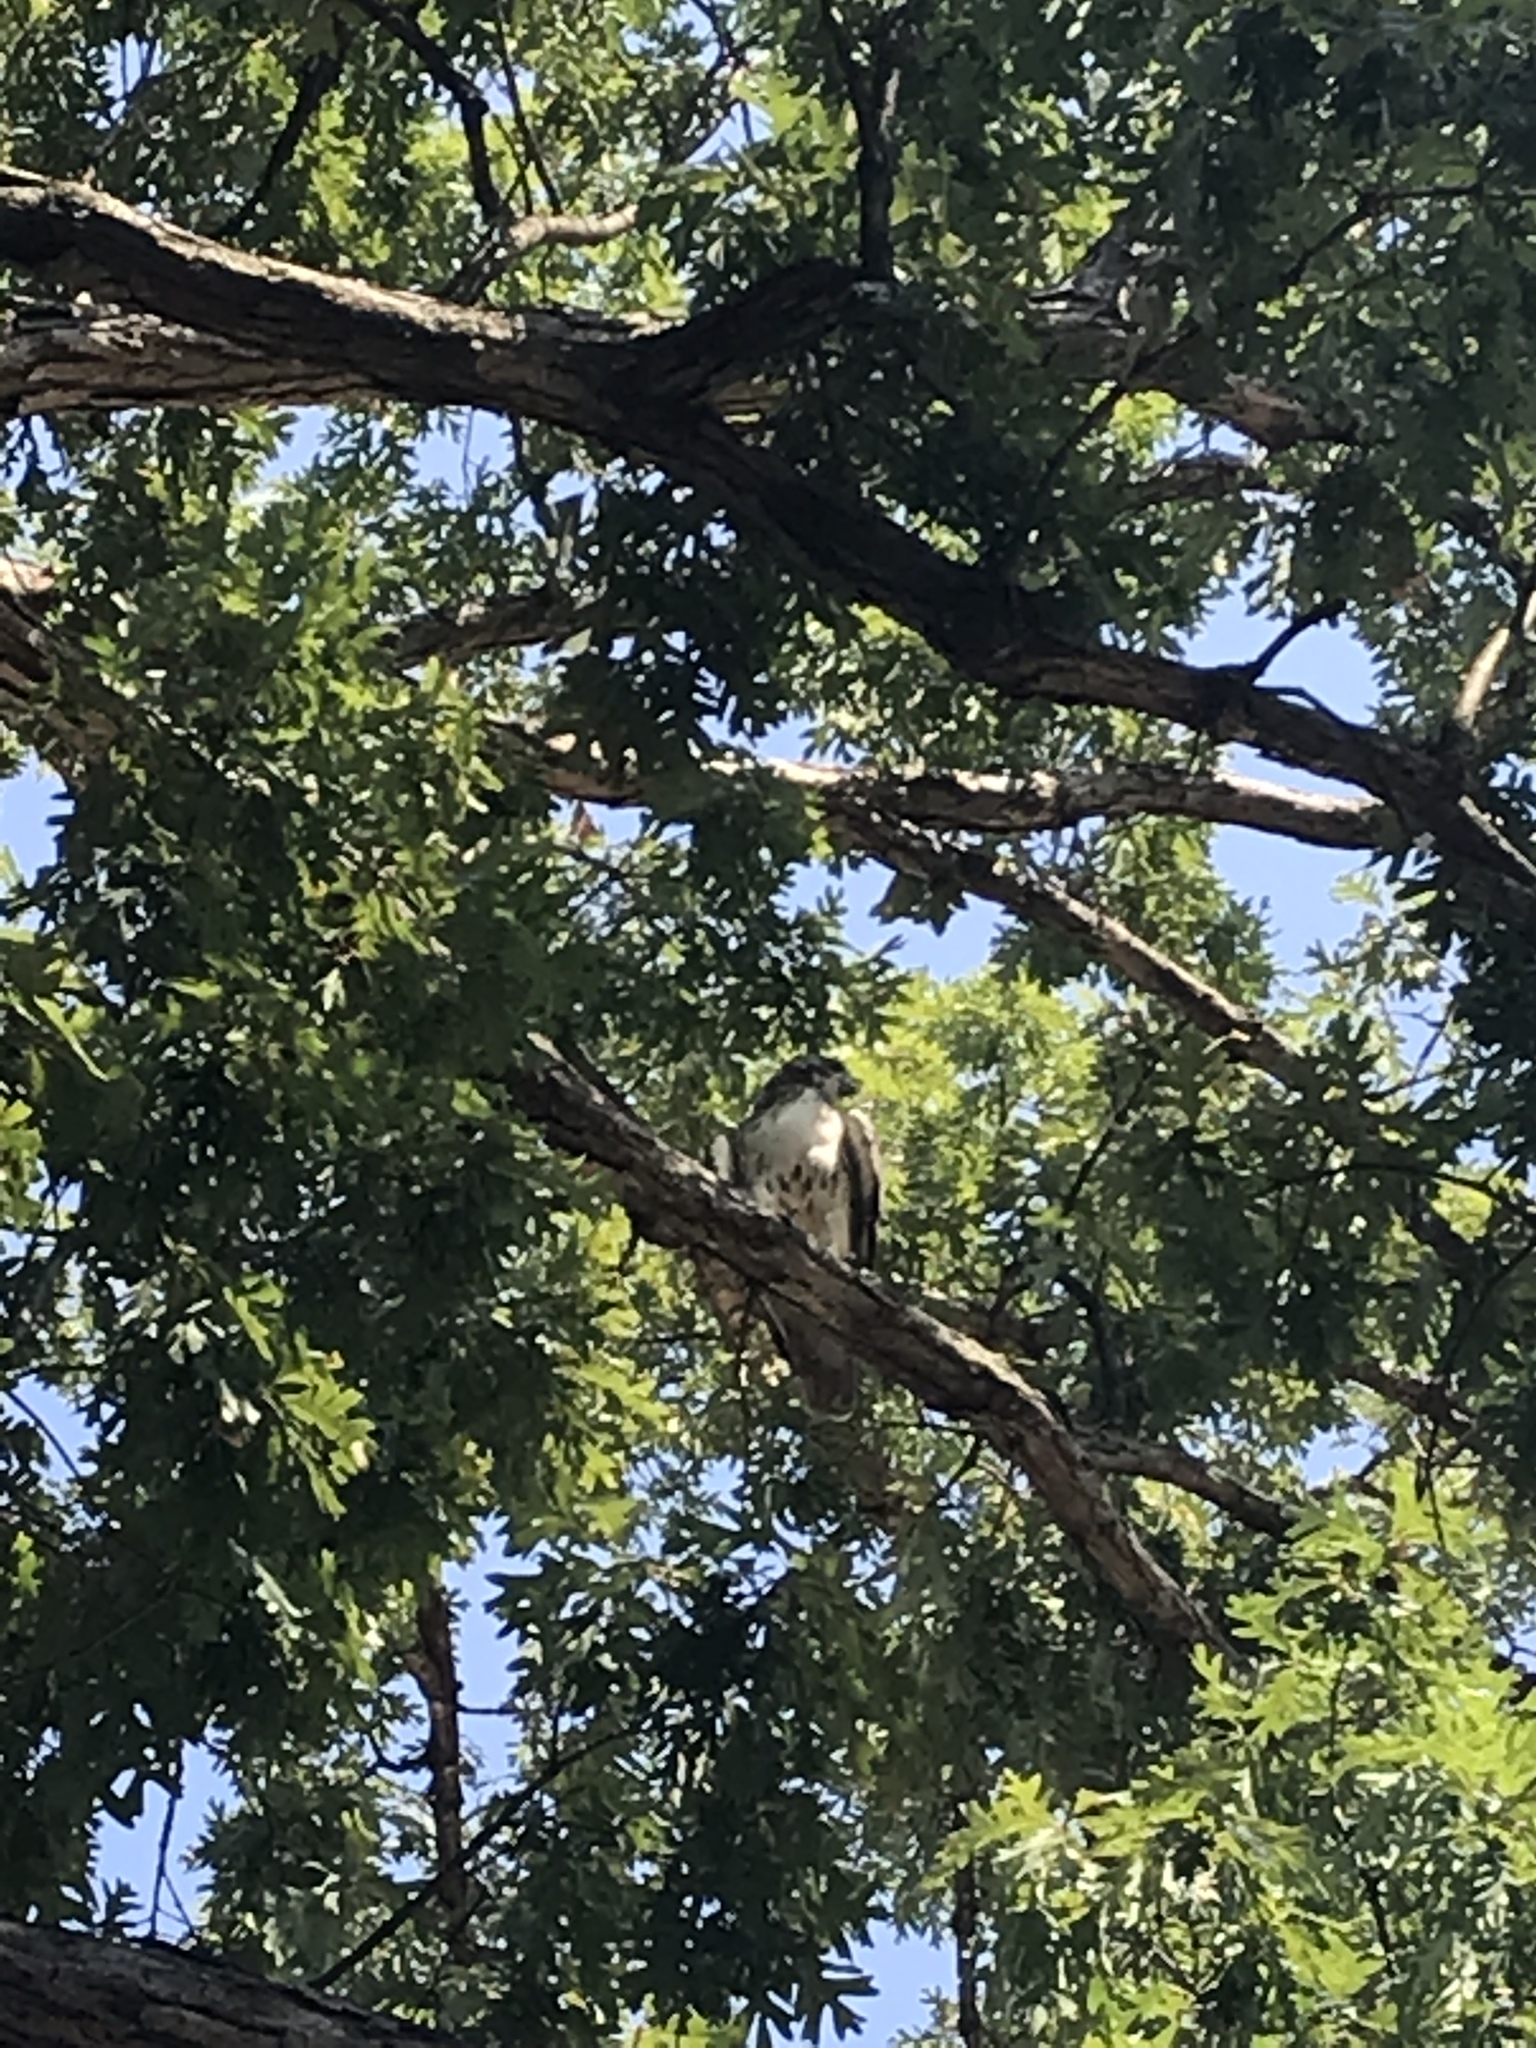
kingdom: Animalia
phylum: Chordata
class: Aves
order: Accipitriformes
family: Accipitridae
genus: Buteo
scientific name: Buteo jamaicensis
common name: Red-tailed hawk
